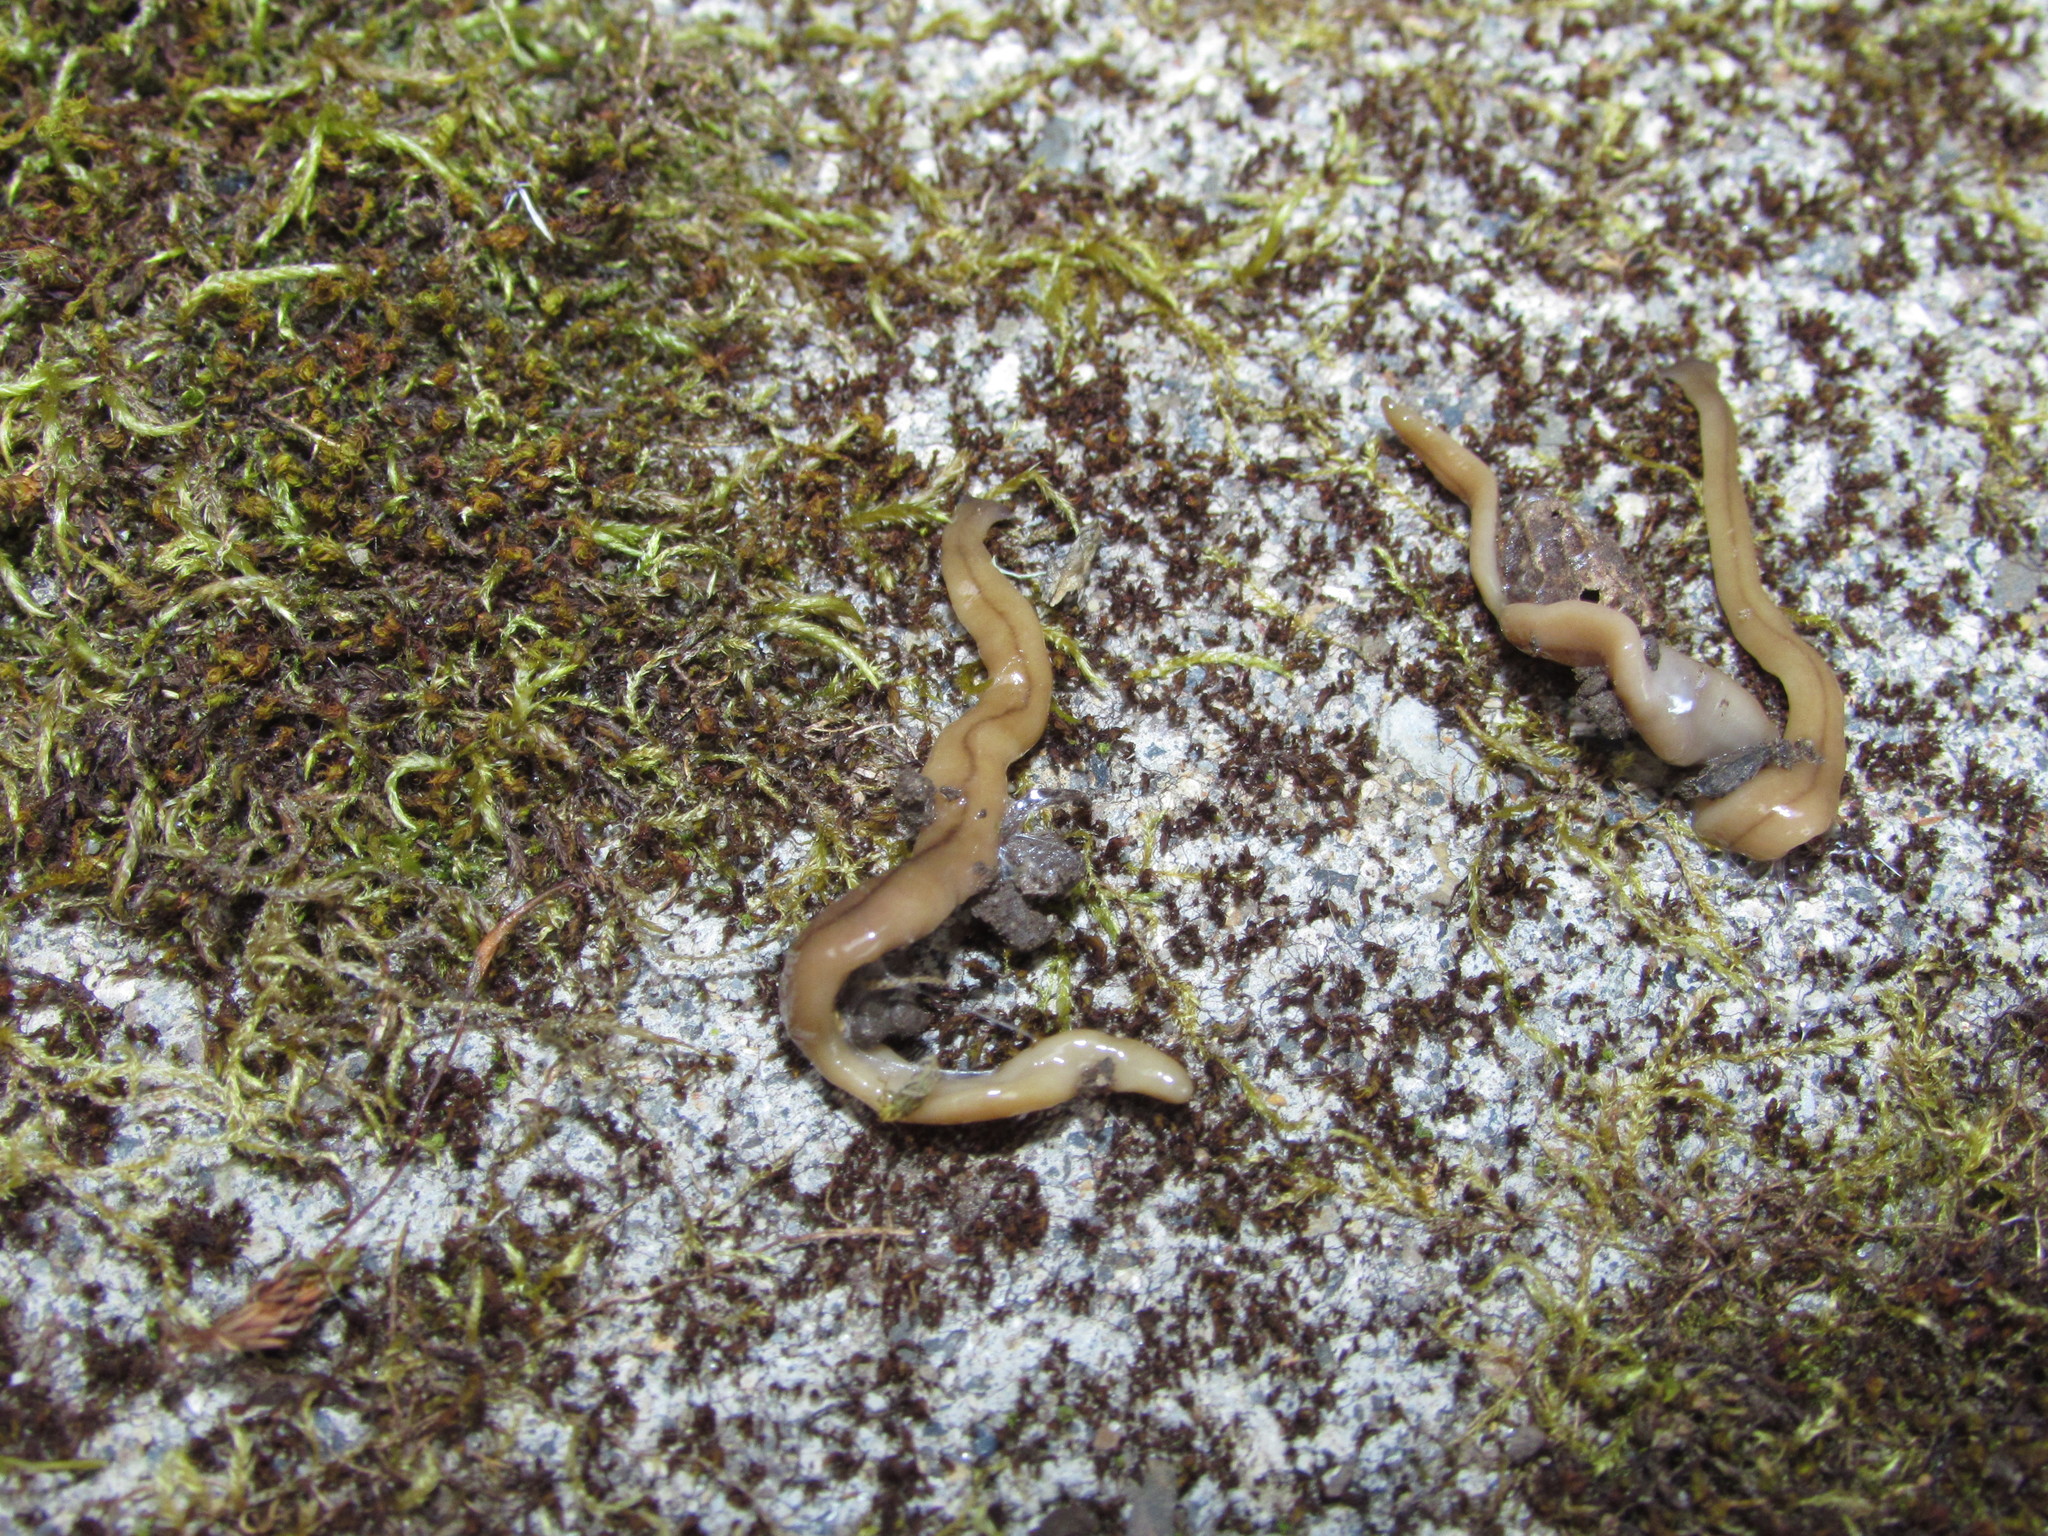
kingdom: Animalia
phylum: Platyhelminthes
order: Tricladida
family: Geoplanidae
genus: Bipalium
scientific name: Bipalium adventitium
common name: Land planarian
